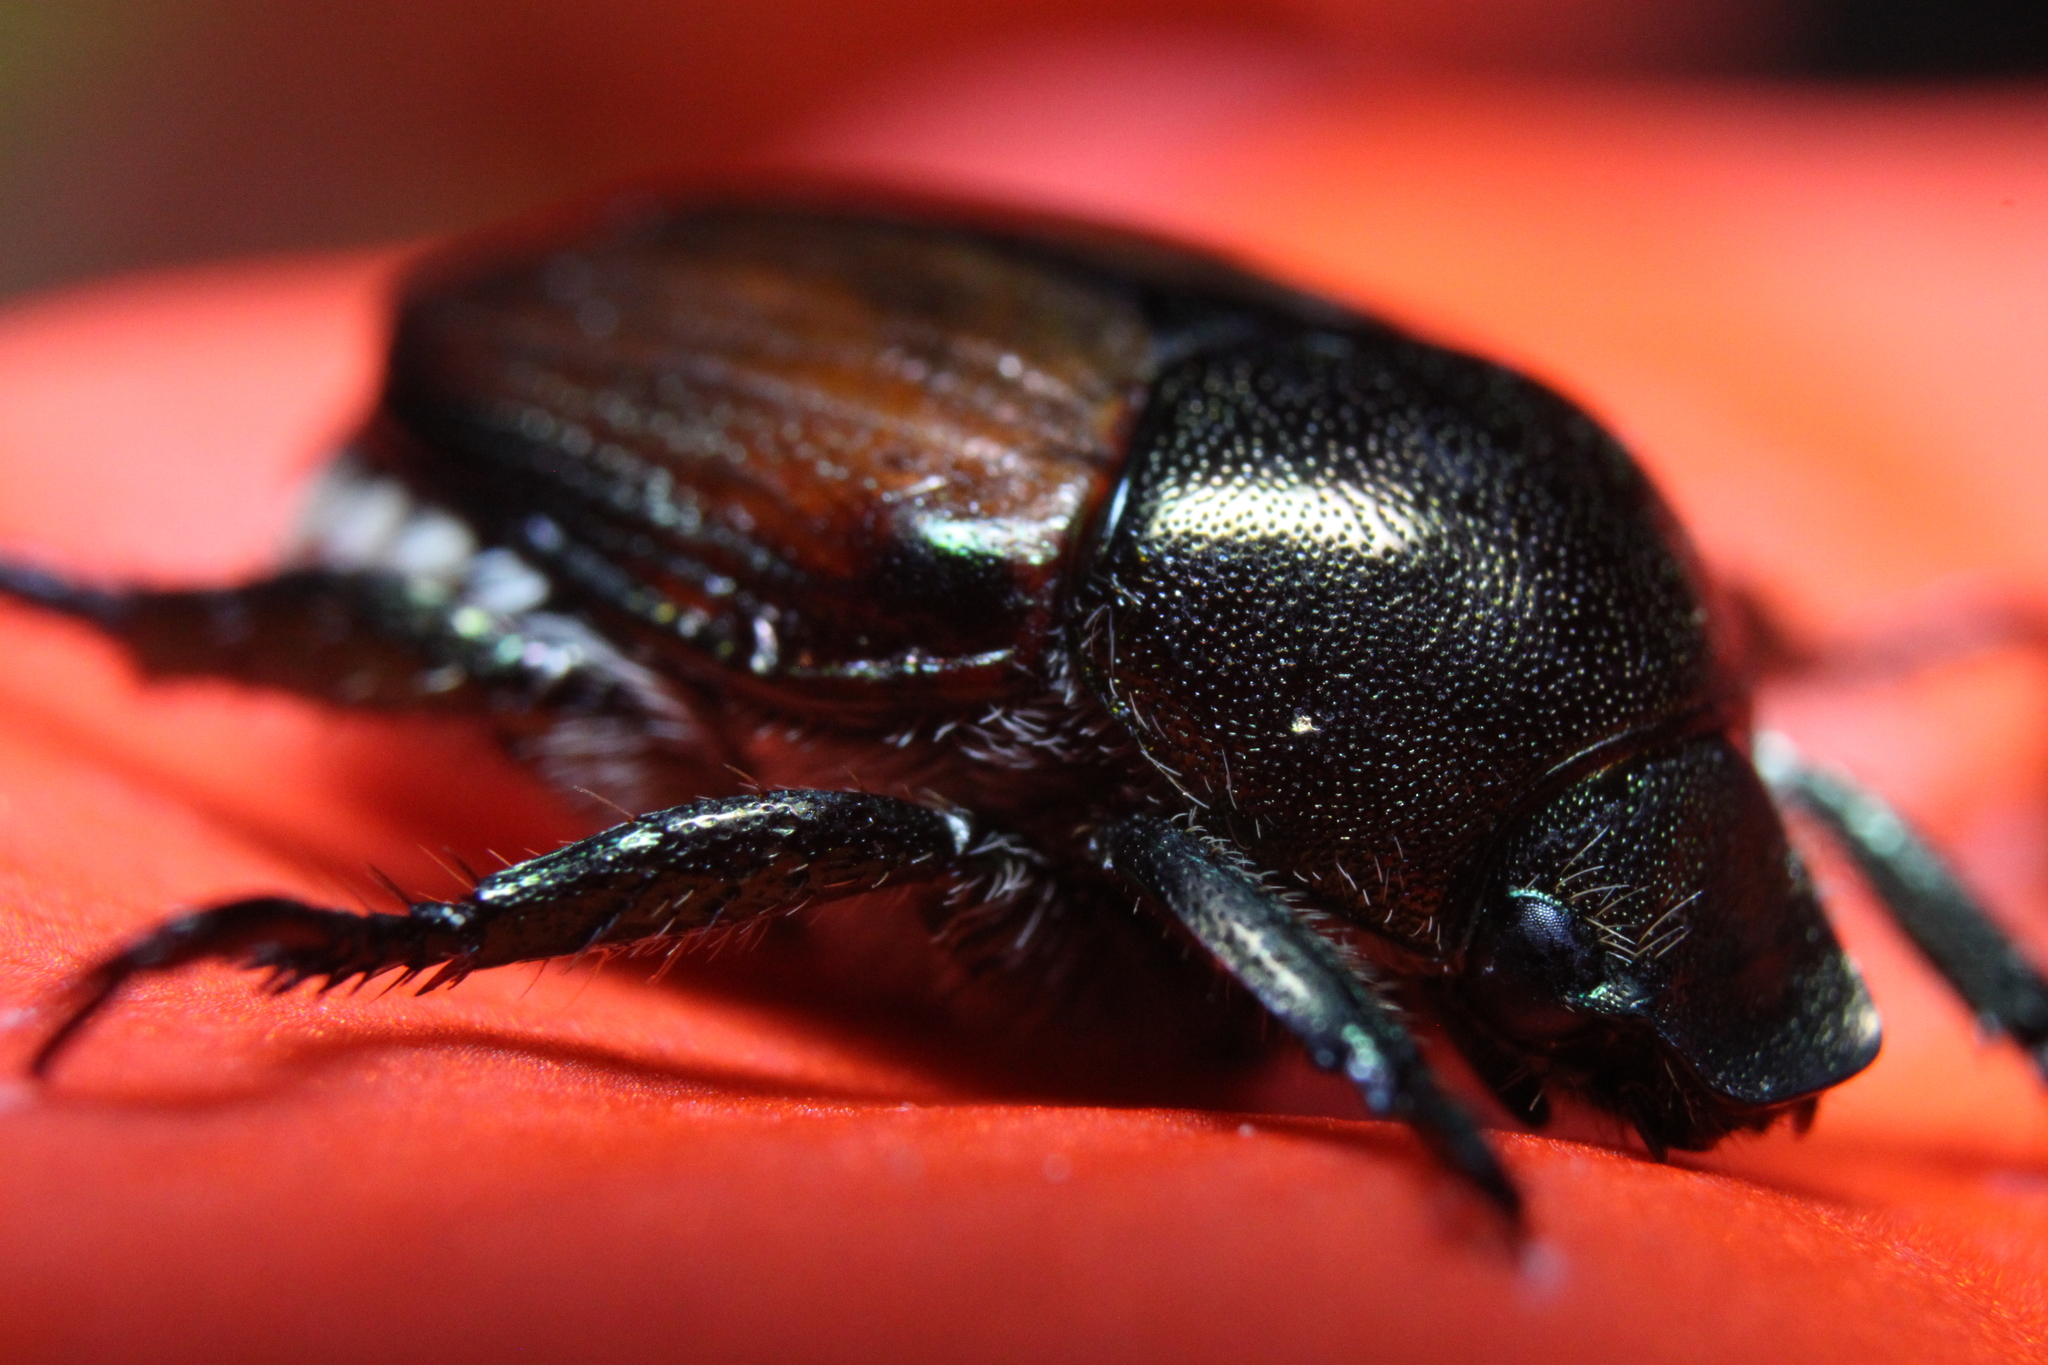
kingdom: Animalia
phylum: Arthropoda
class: Insecta
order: Coleoptera
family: Scarabaeidae
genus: Popillia
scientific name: Popillia japonica
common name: Japanese beetle
